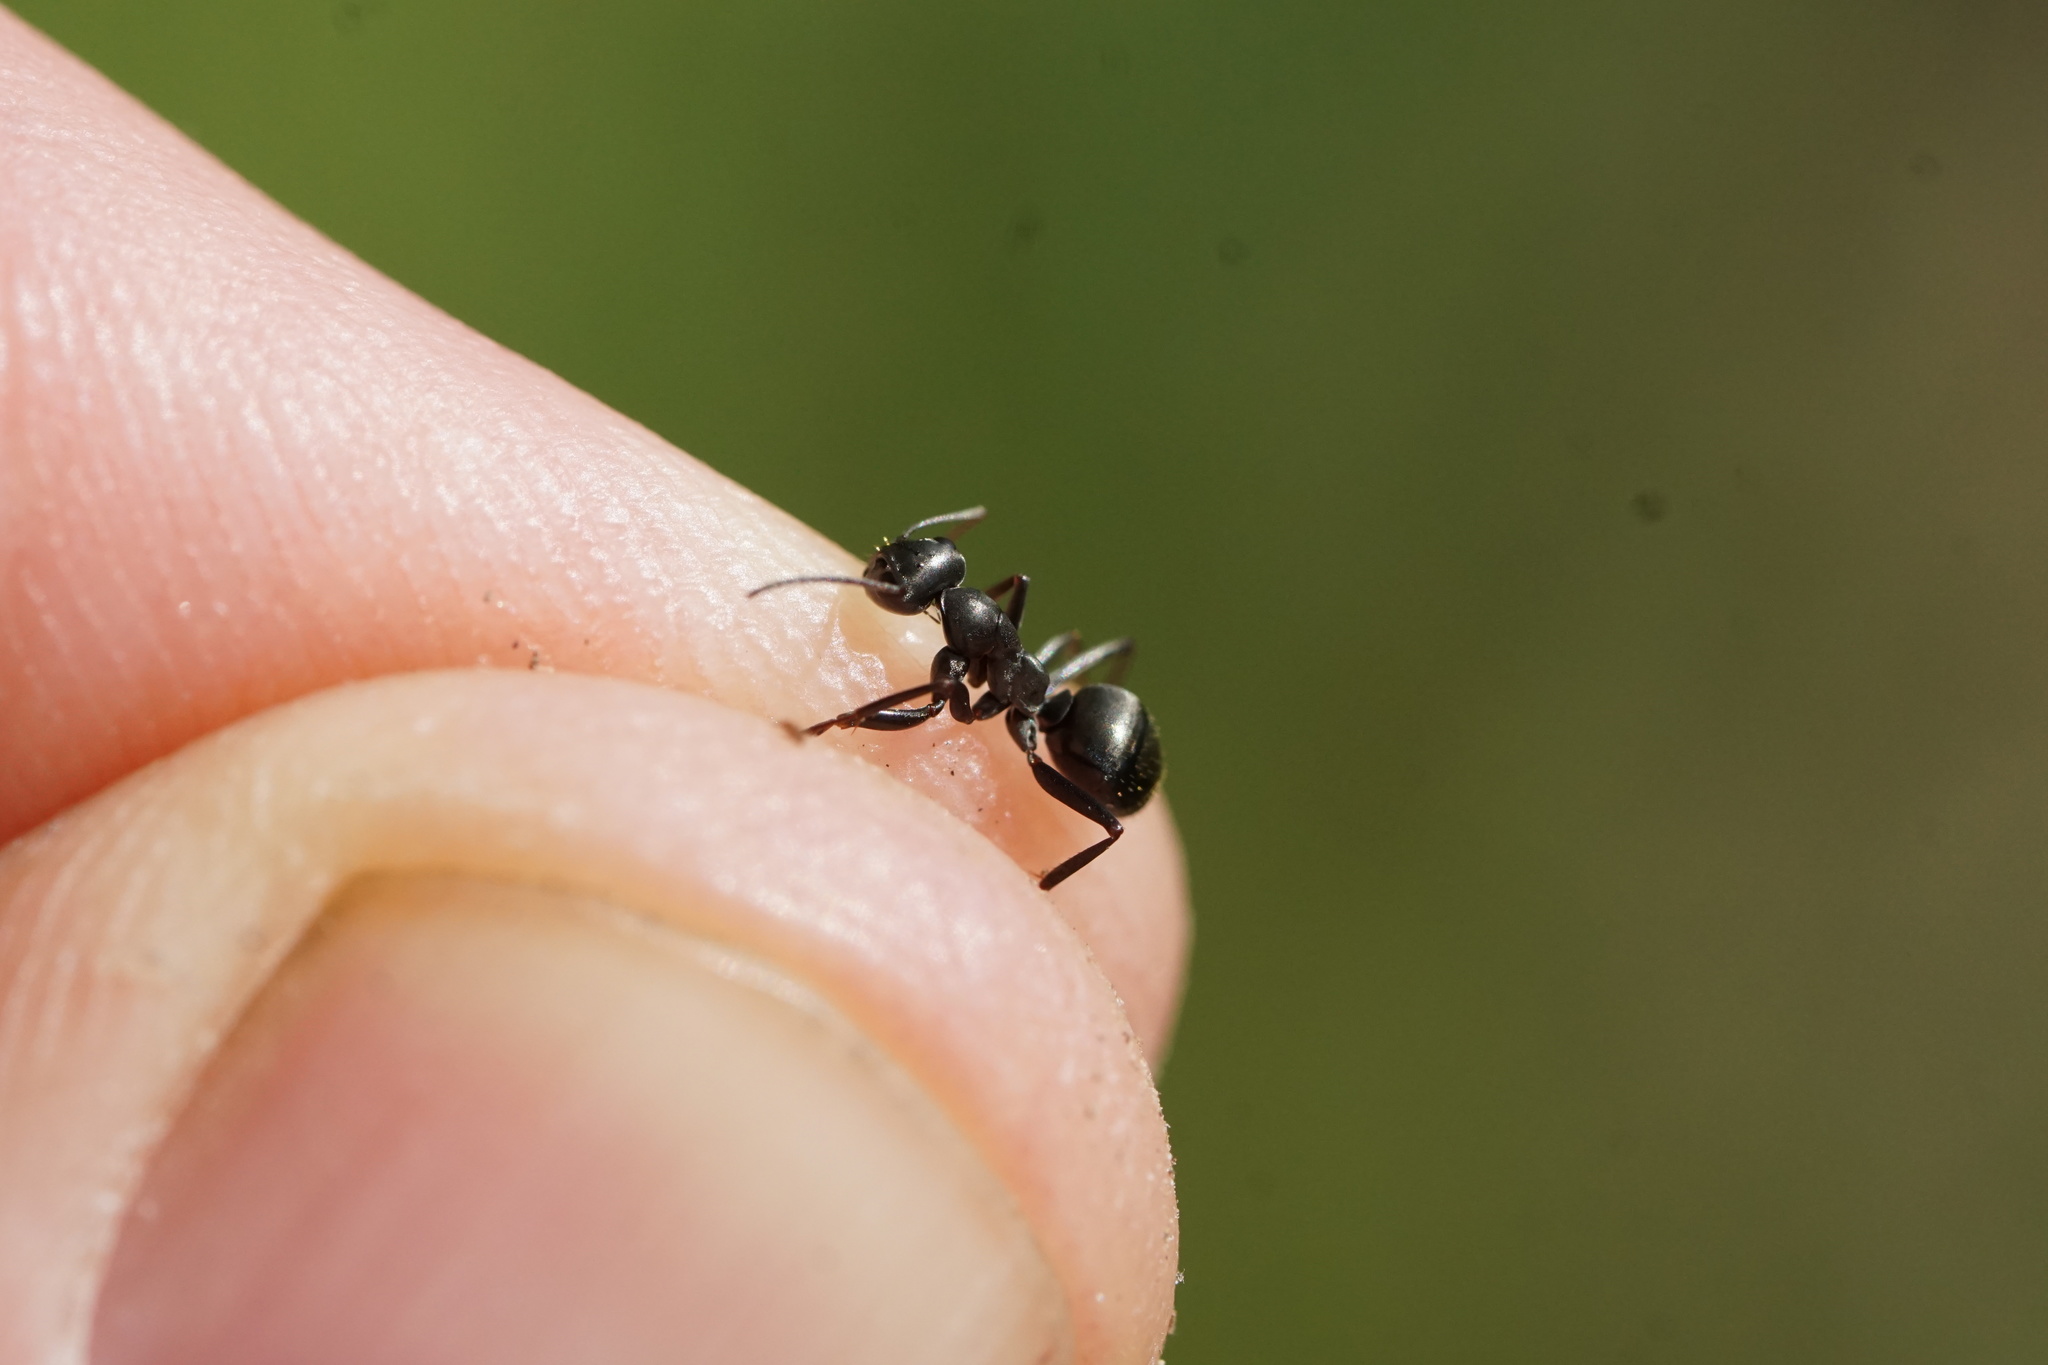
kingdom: Animalia
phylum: Arthropoda
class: Insecta
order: Hymenoptera
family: Formicidae
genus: Formica
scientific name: Formica subsericea
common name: Silky field ant
